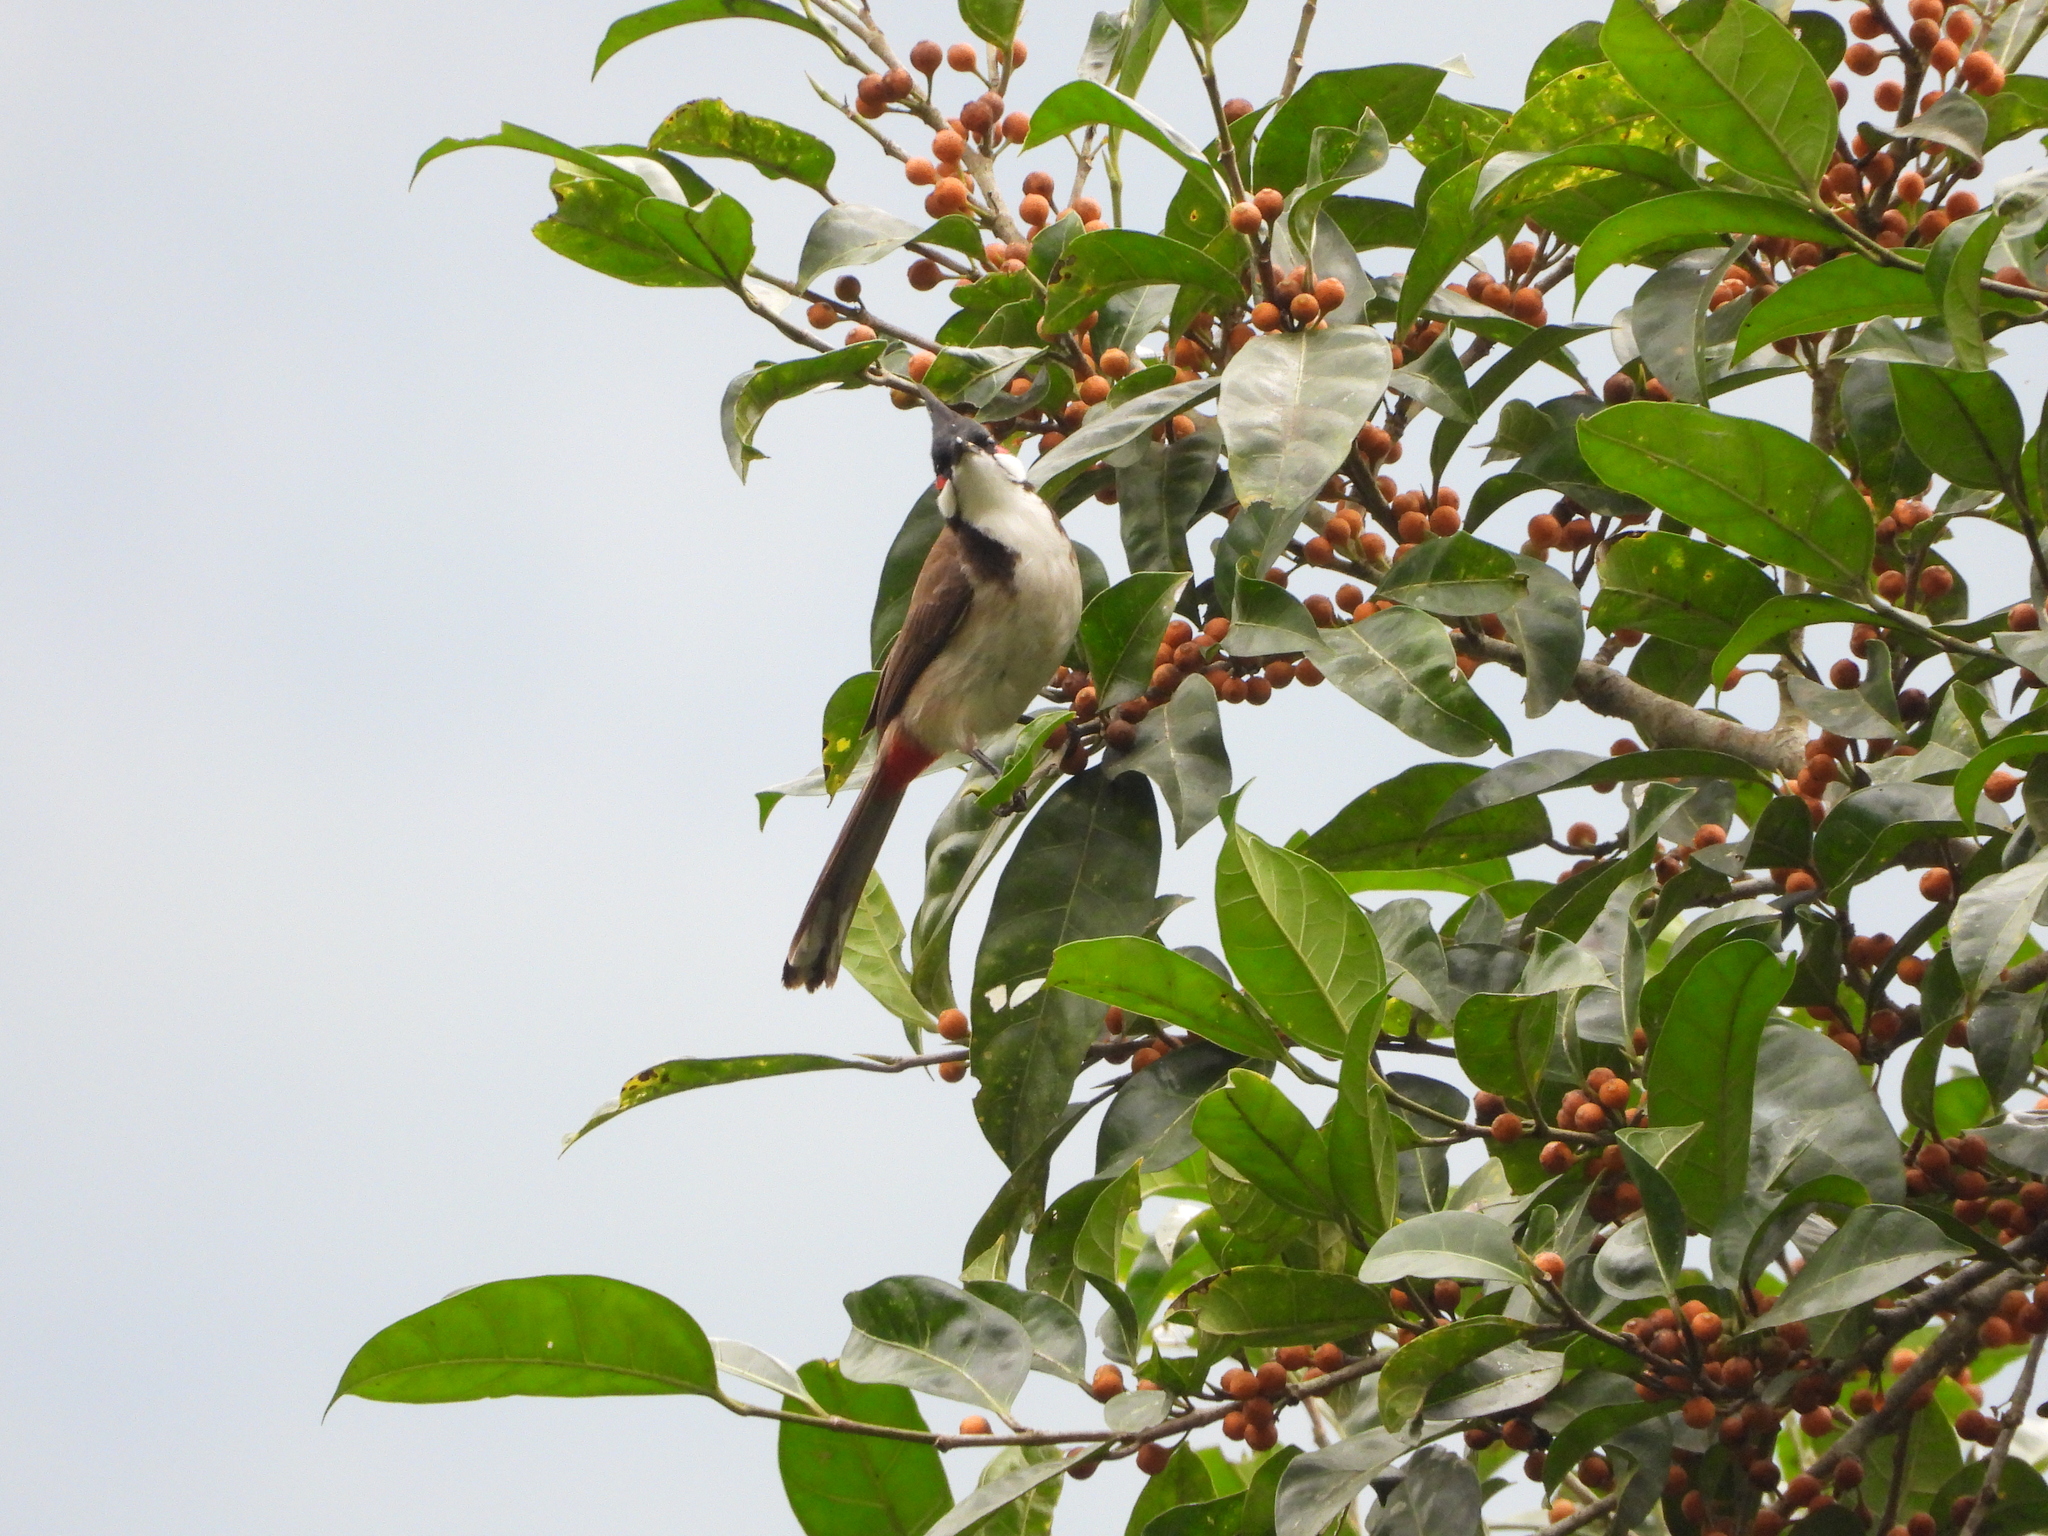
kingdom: Animalia
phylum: Chordata
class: Aves
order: Passeriformes
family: Pycnonotidae
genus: Pycnonotus
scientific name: Pycnonotus jocosus
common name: Red-whiskered bulbul
